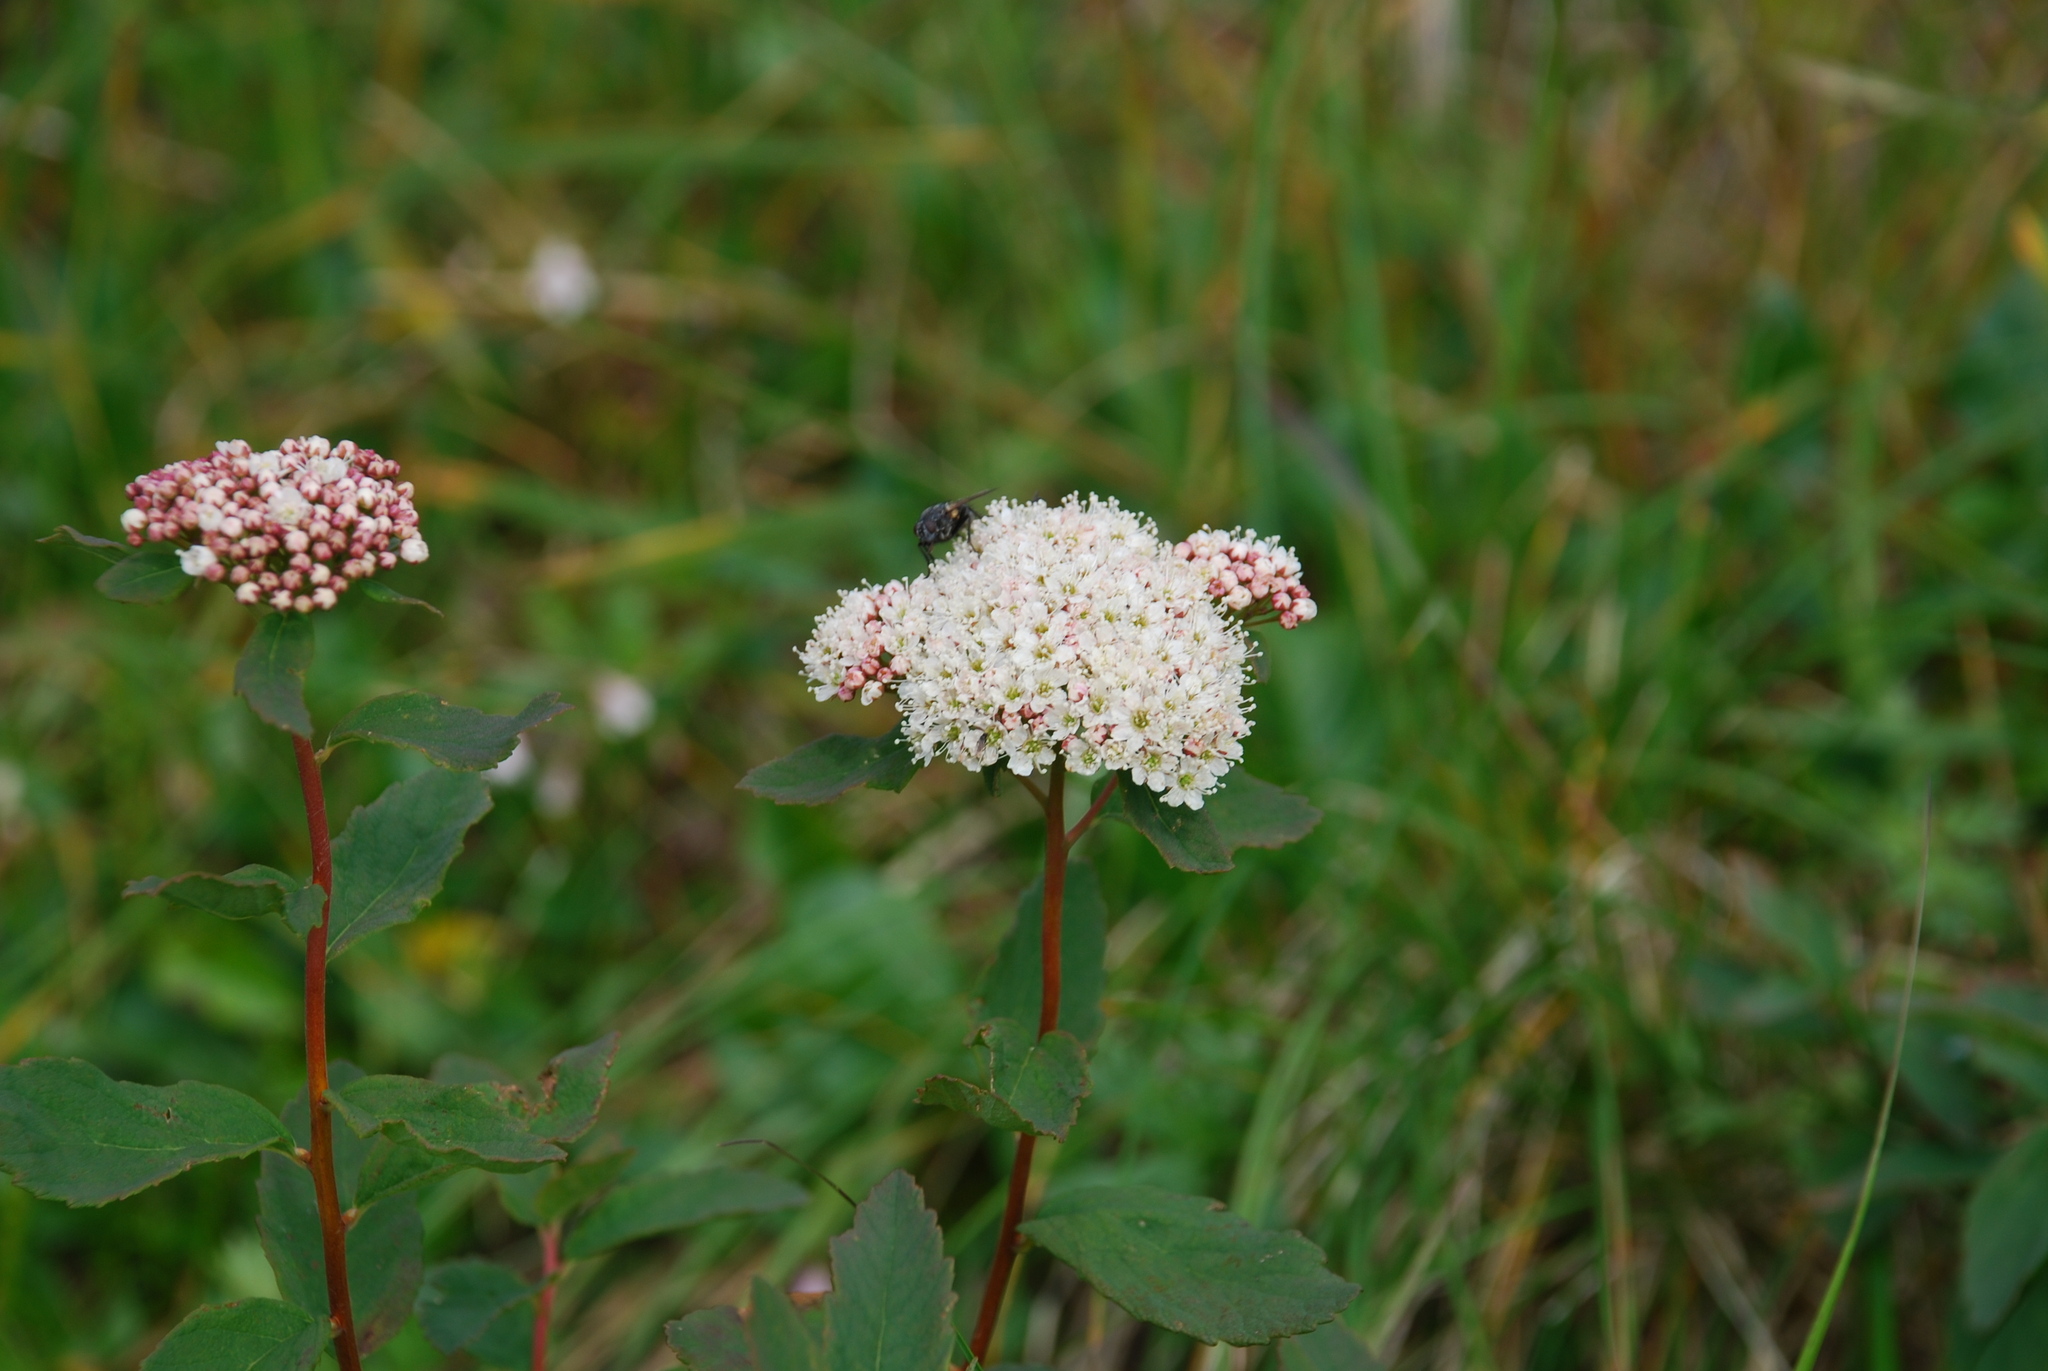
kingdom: Plantae
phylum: Tracheophyta
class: Magnoliopsida
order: Rosales
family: Rosaceae
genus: Spiraea
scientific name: Spiraea stevenii
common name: Steven's meadowsweet
